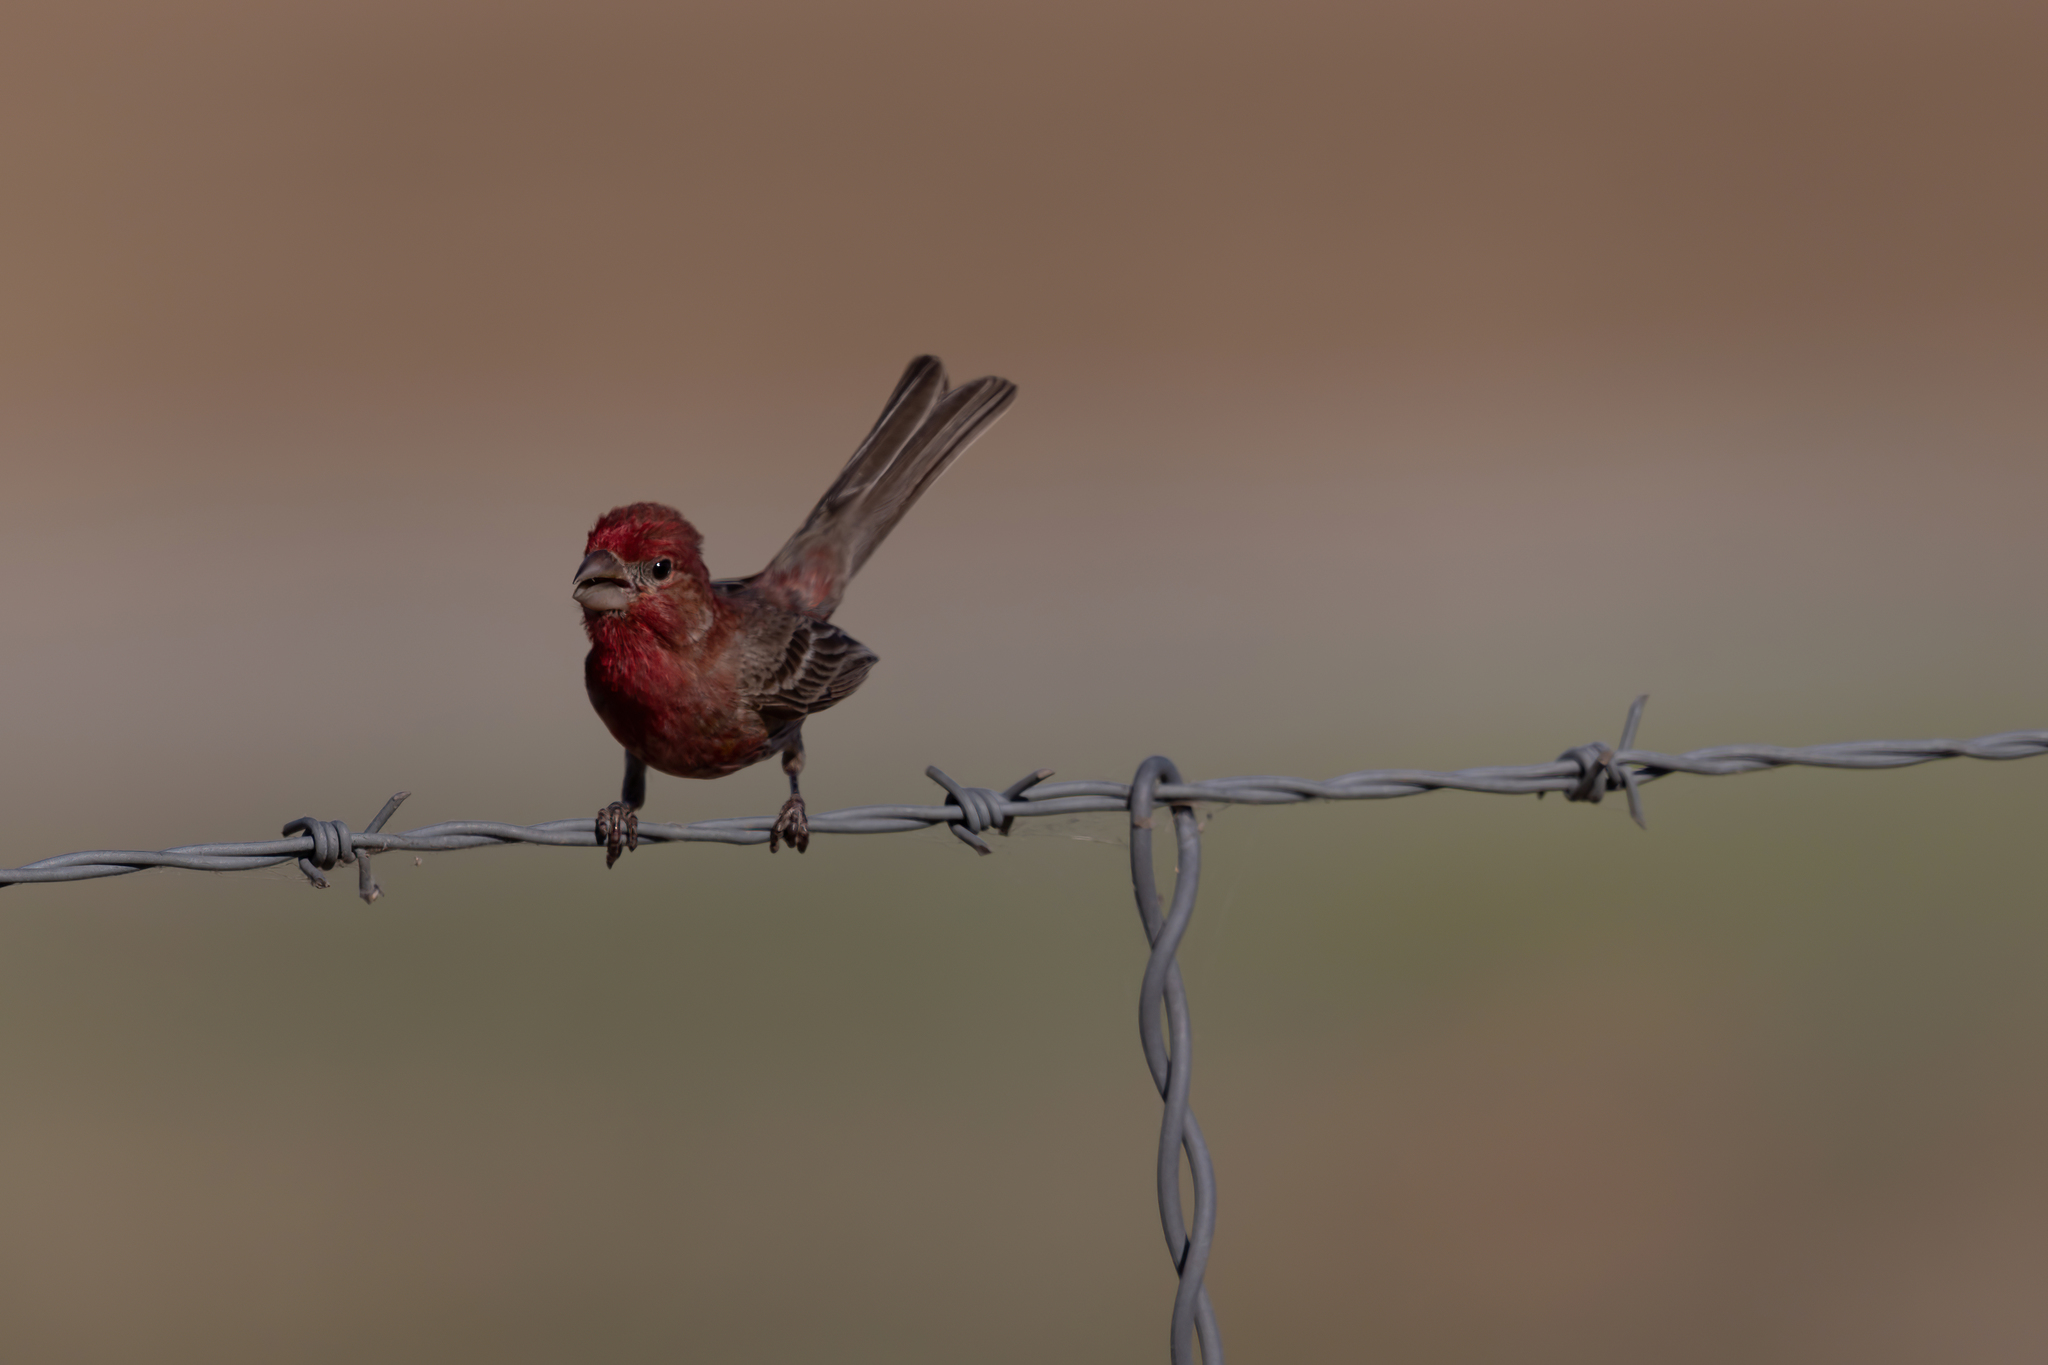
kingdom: Animalia
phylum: Chordata
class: Aves
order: Passeriformes
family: Fringillidae
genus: Haemorhous
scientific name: Haemorhous mexicanus
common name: House finch
